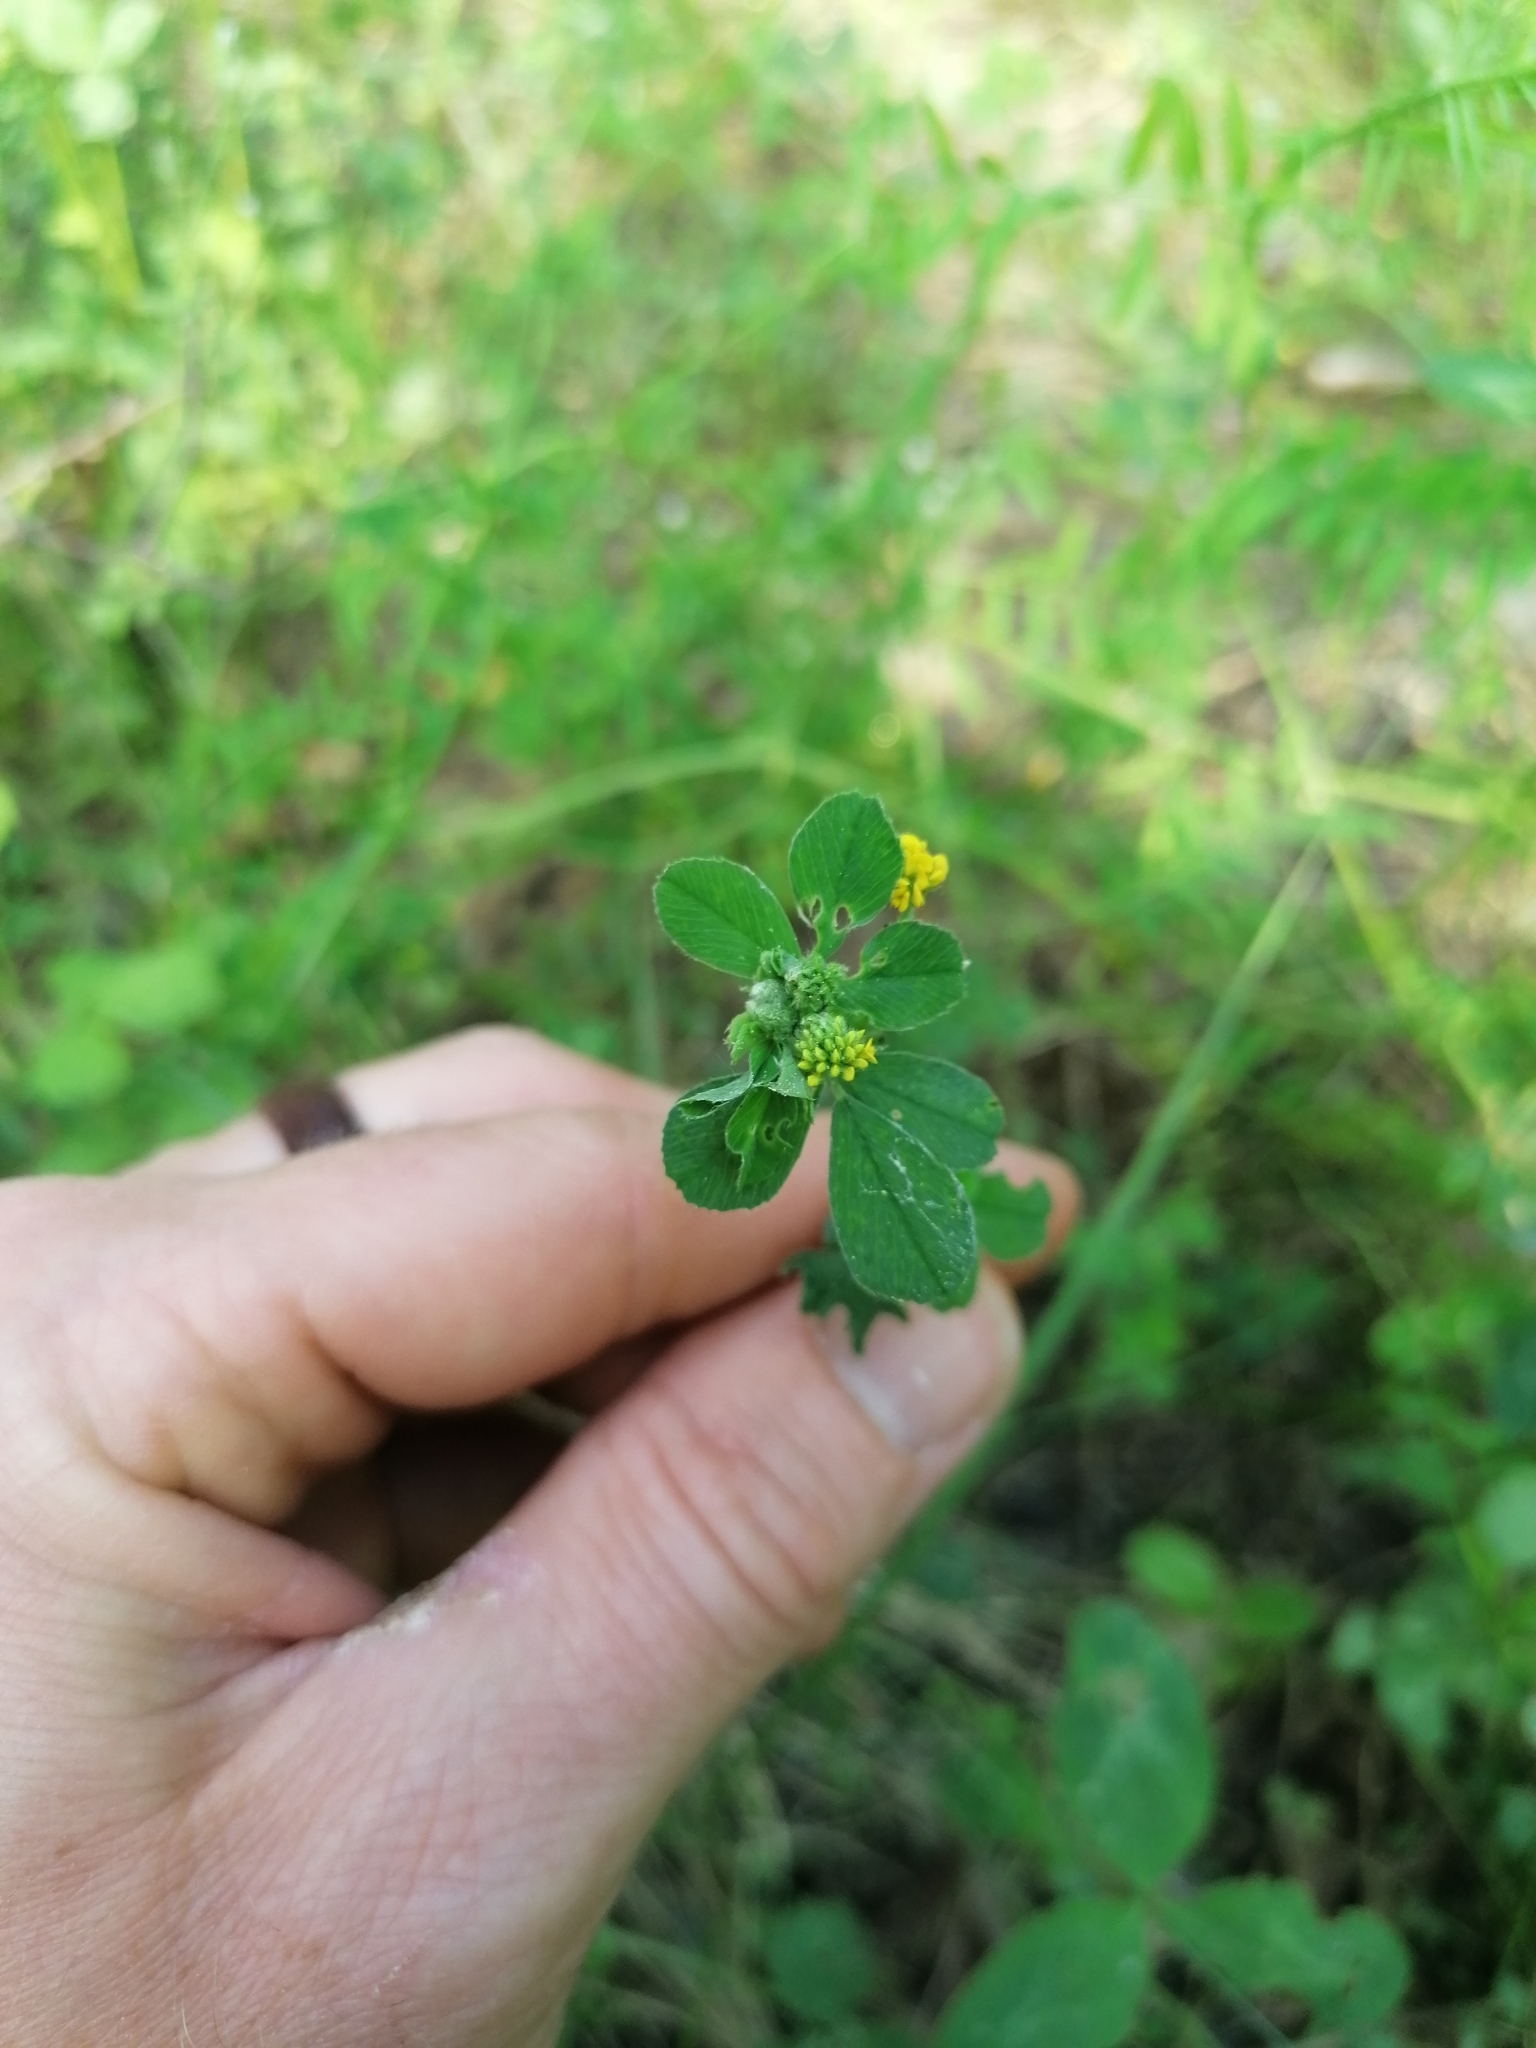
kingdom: Plantae
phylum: Tracheophyta
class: Magnoliopsida
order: Fabales
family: Fabaceae
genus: Medicago
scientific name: Medicago lupulina
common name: Black medick
